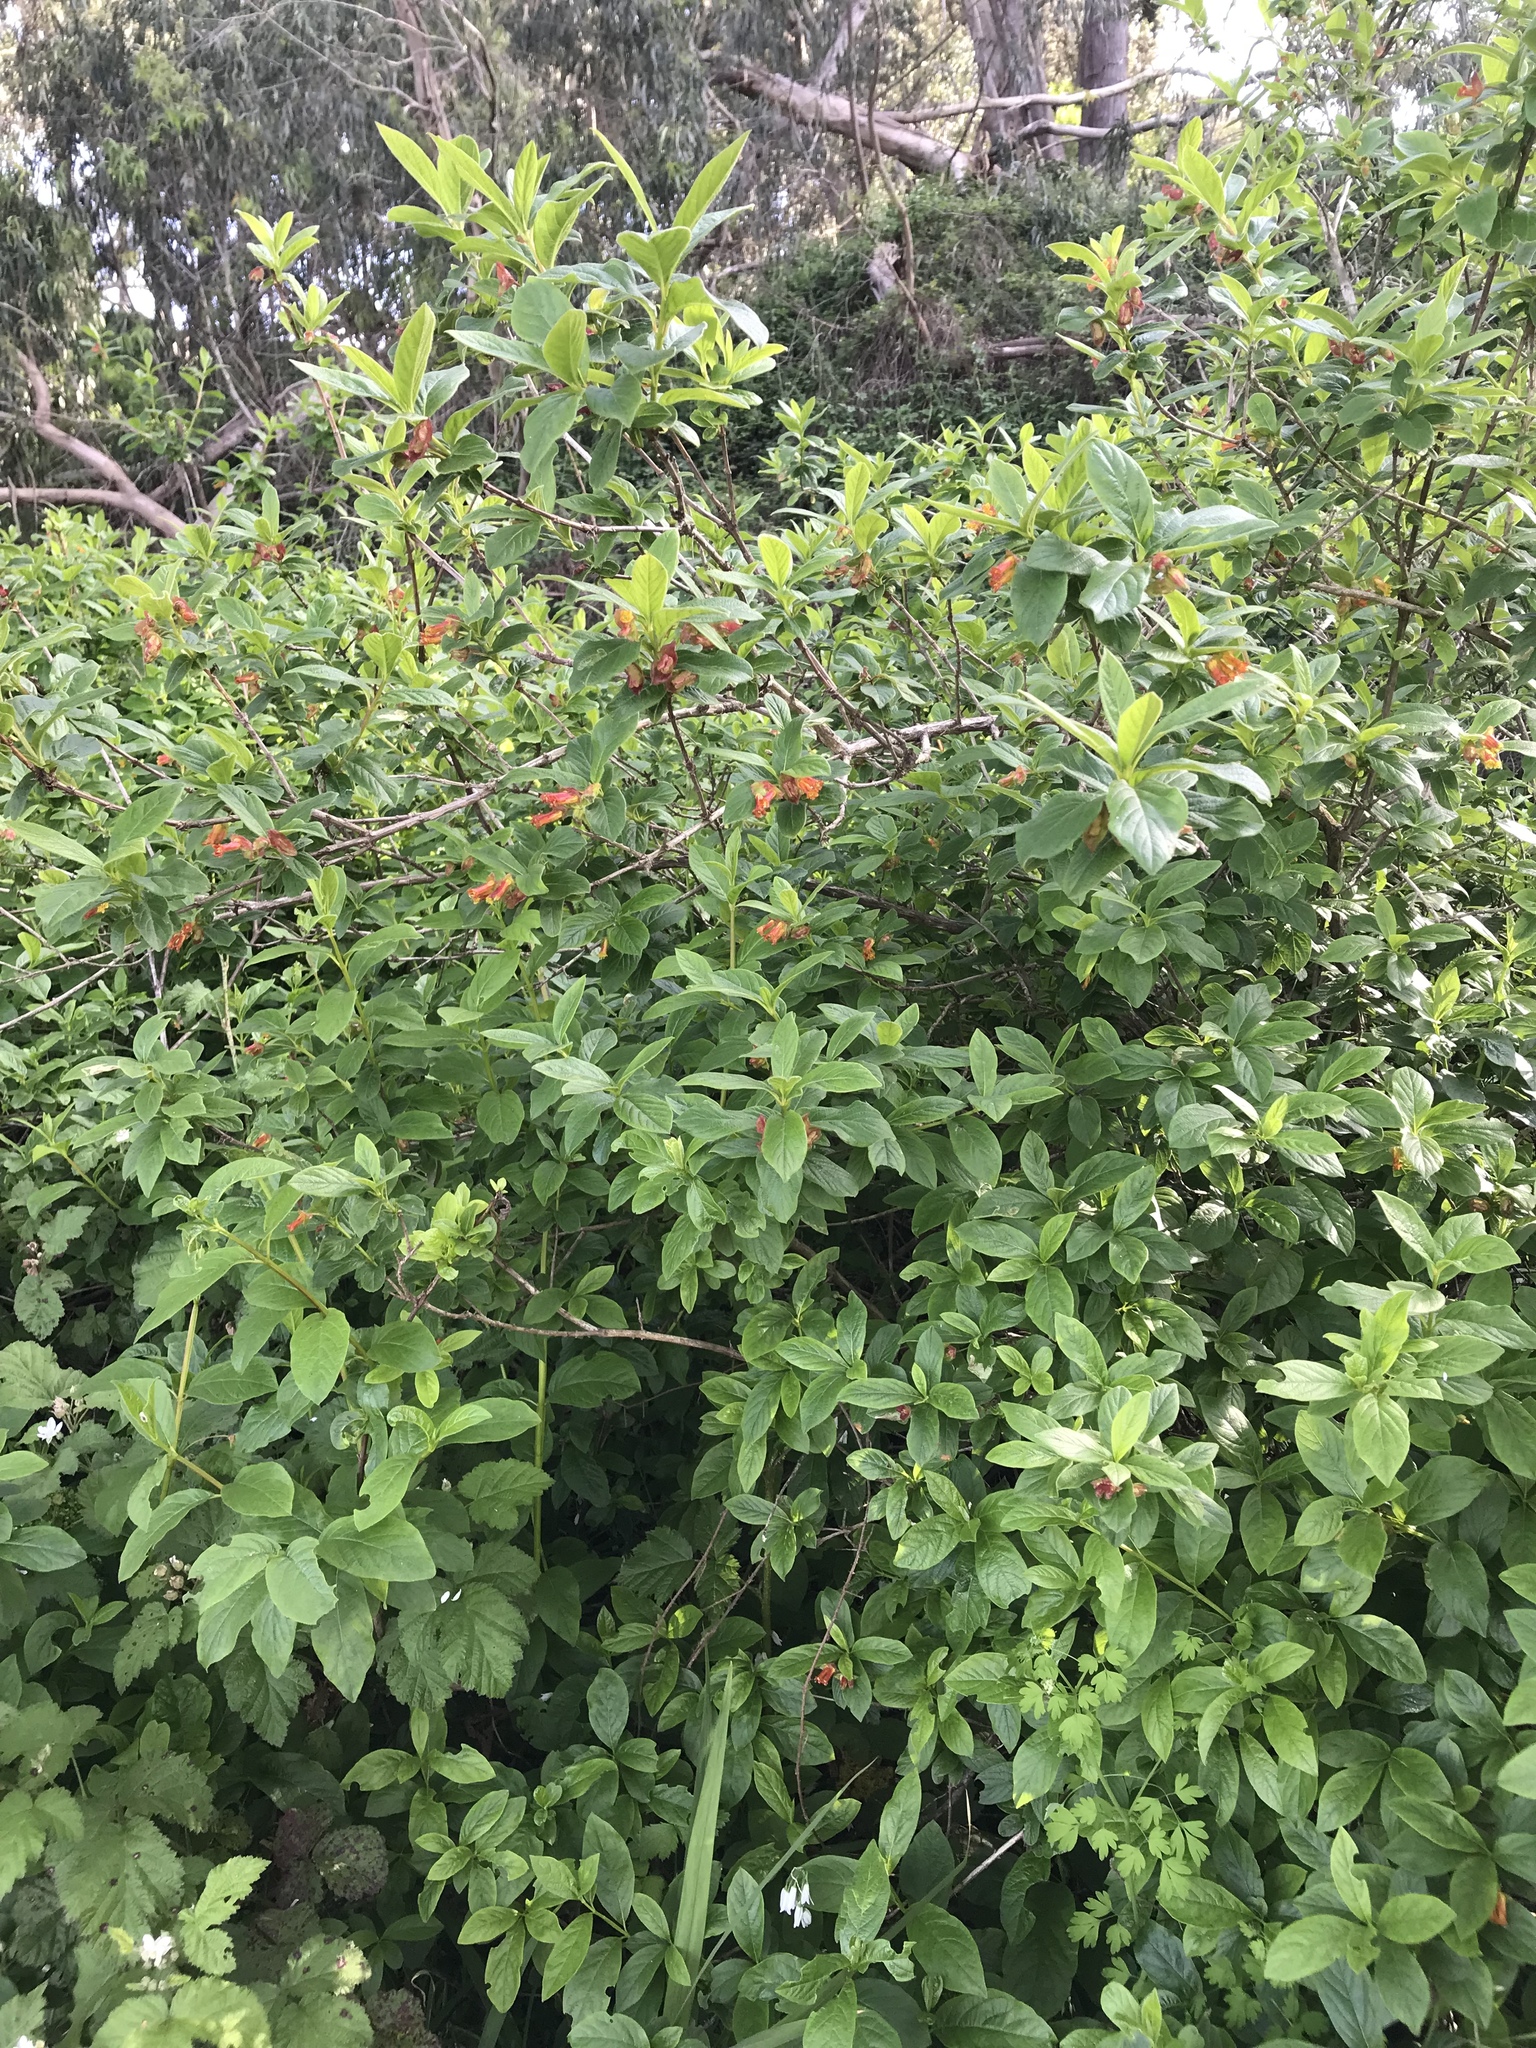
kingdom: Plantae
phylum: Tracheophyta
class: Magnoliopsida
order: Dipsacales
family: Caprifoliaceae
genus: Lonicera
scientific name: Lonicera involucrata
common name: Californian honeysuckle
